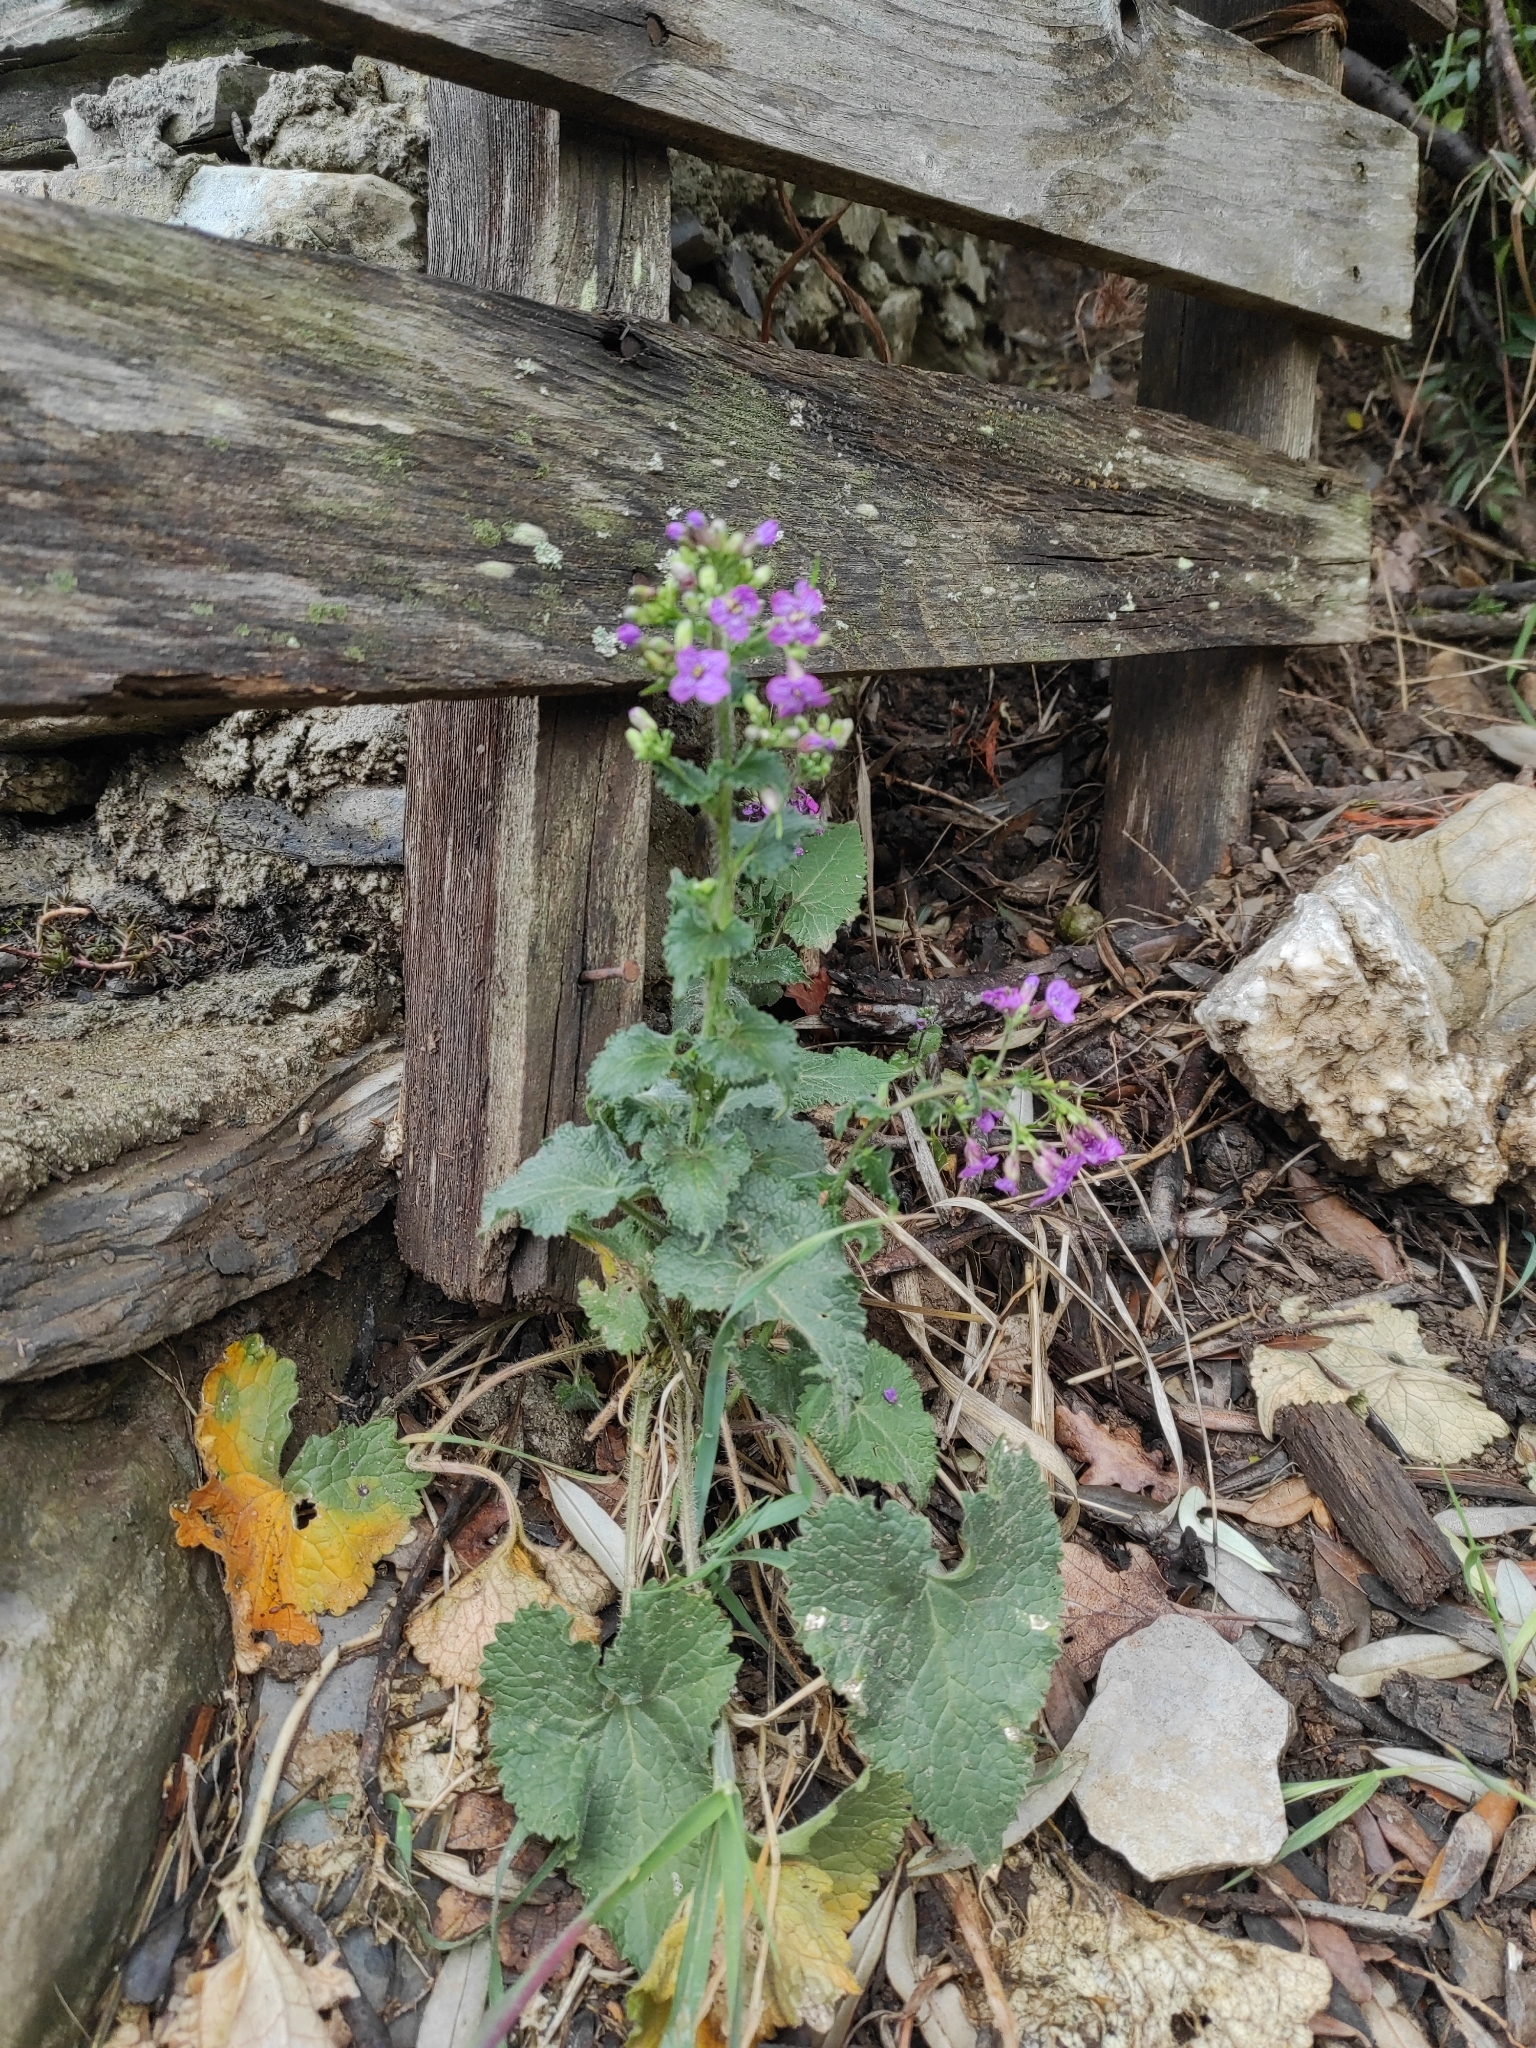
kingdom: Plantae
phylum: Tracheophyta
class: Magnoliopsida
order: Brassicales
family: Brassicaceae
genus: Lunaria
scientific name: Lunaria annua
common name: Honesty
